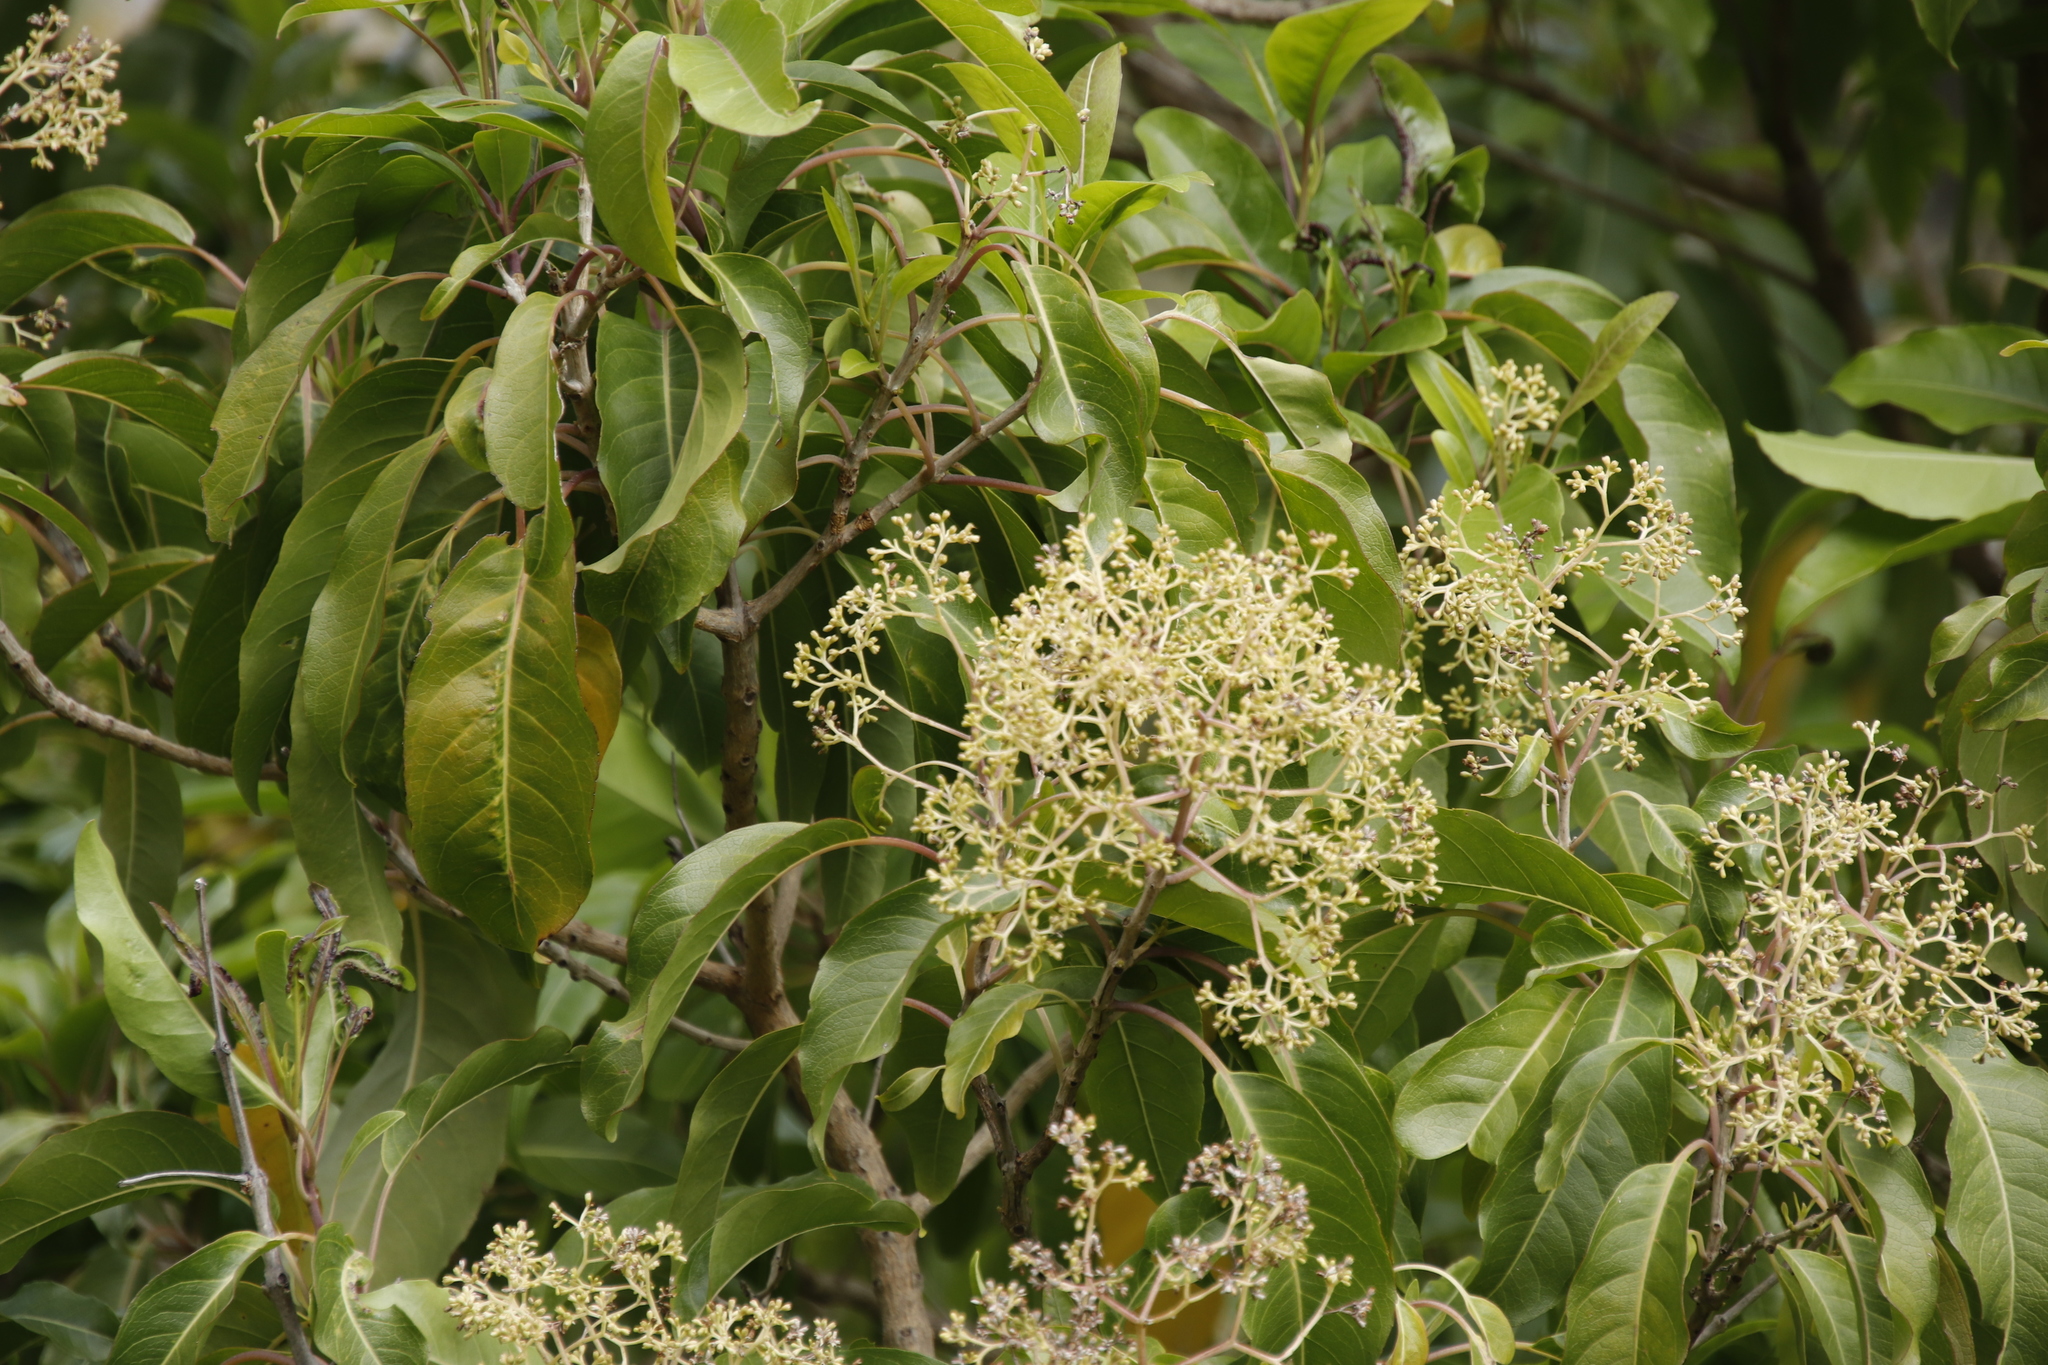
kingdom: Plantae
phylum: Tracheophyta
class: Magnoliopsida
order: Lamiales
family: Stilbaceae
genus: Nuxia
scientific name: Nuxia floribunda
